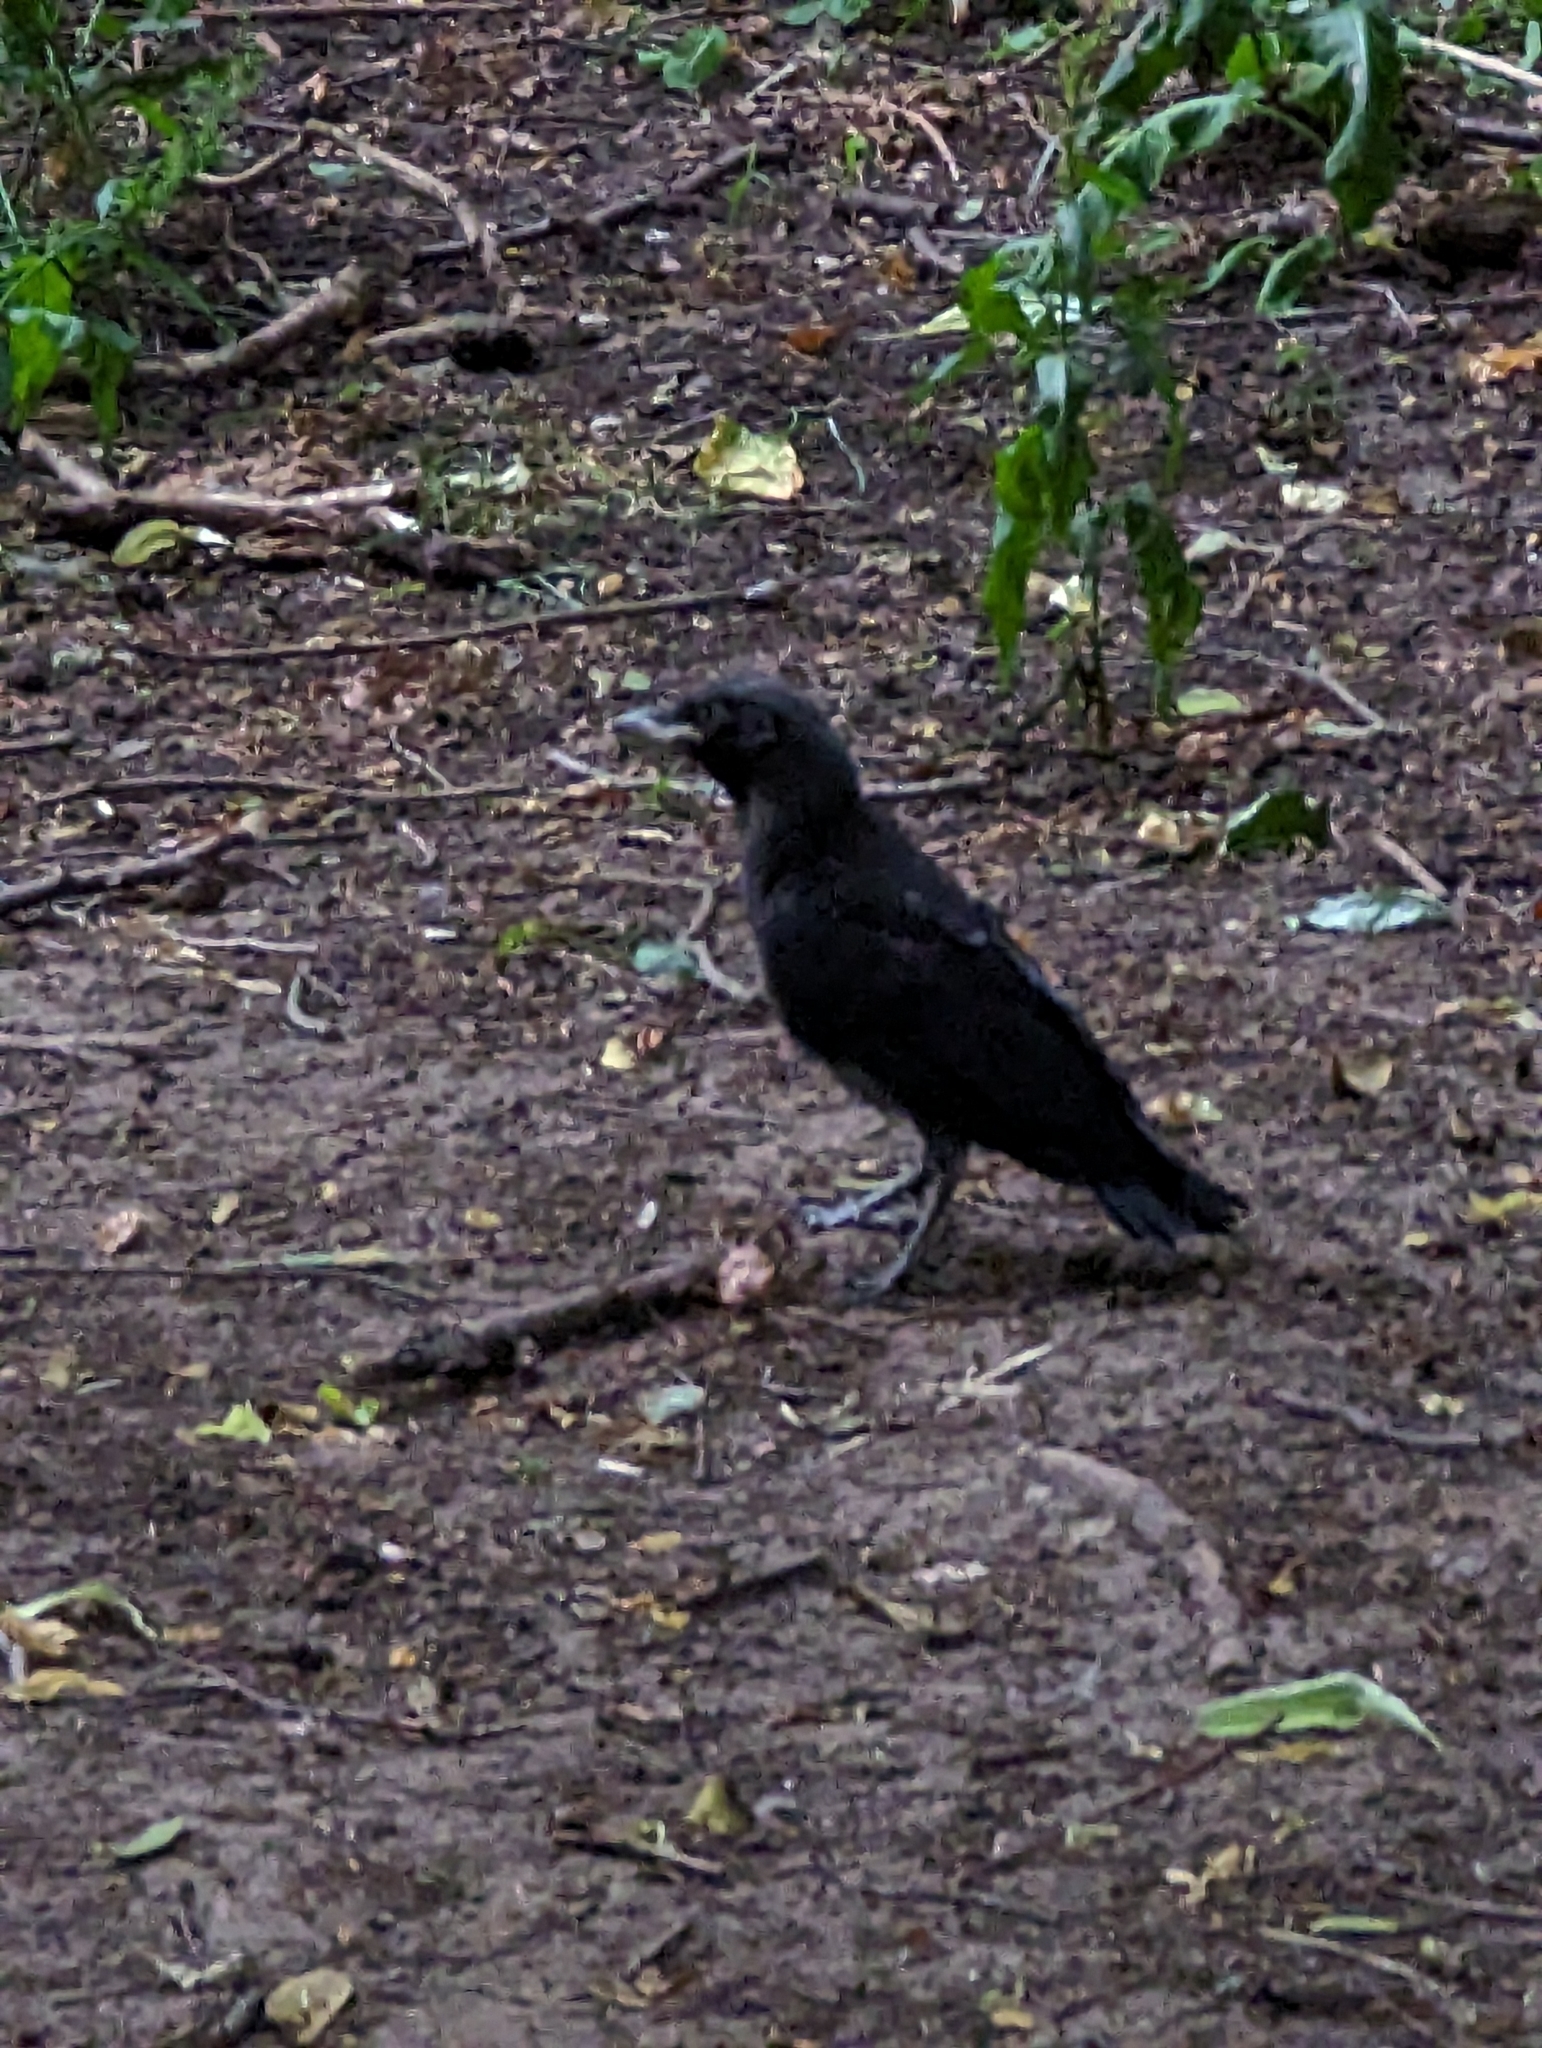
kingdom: Animalia
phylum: Chordata
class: Aves
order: Passeriformes
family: Corvidae
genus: Corvus
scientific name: Corvus corone
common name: Carrion crow
